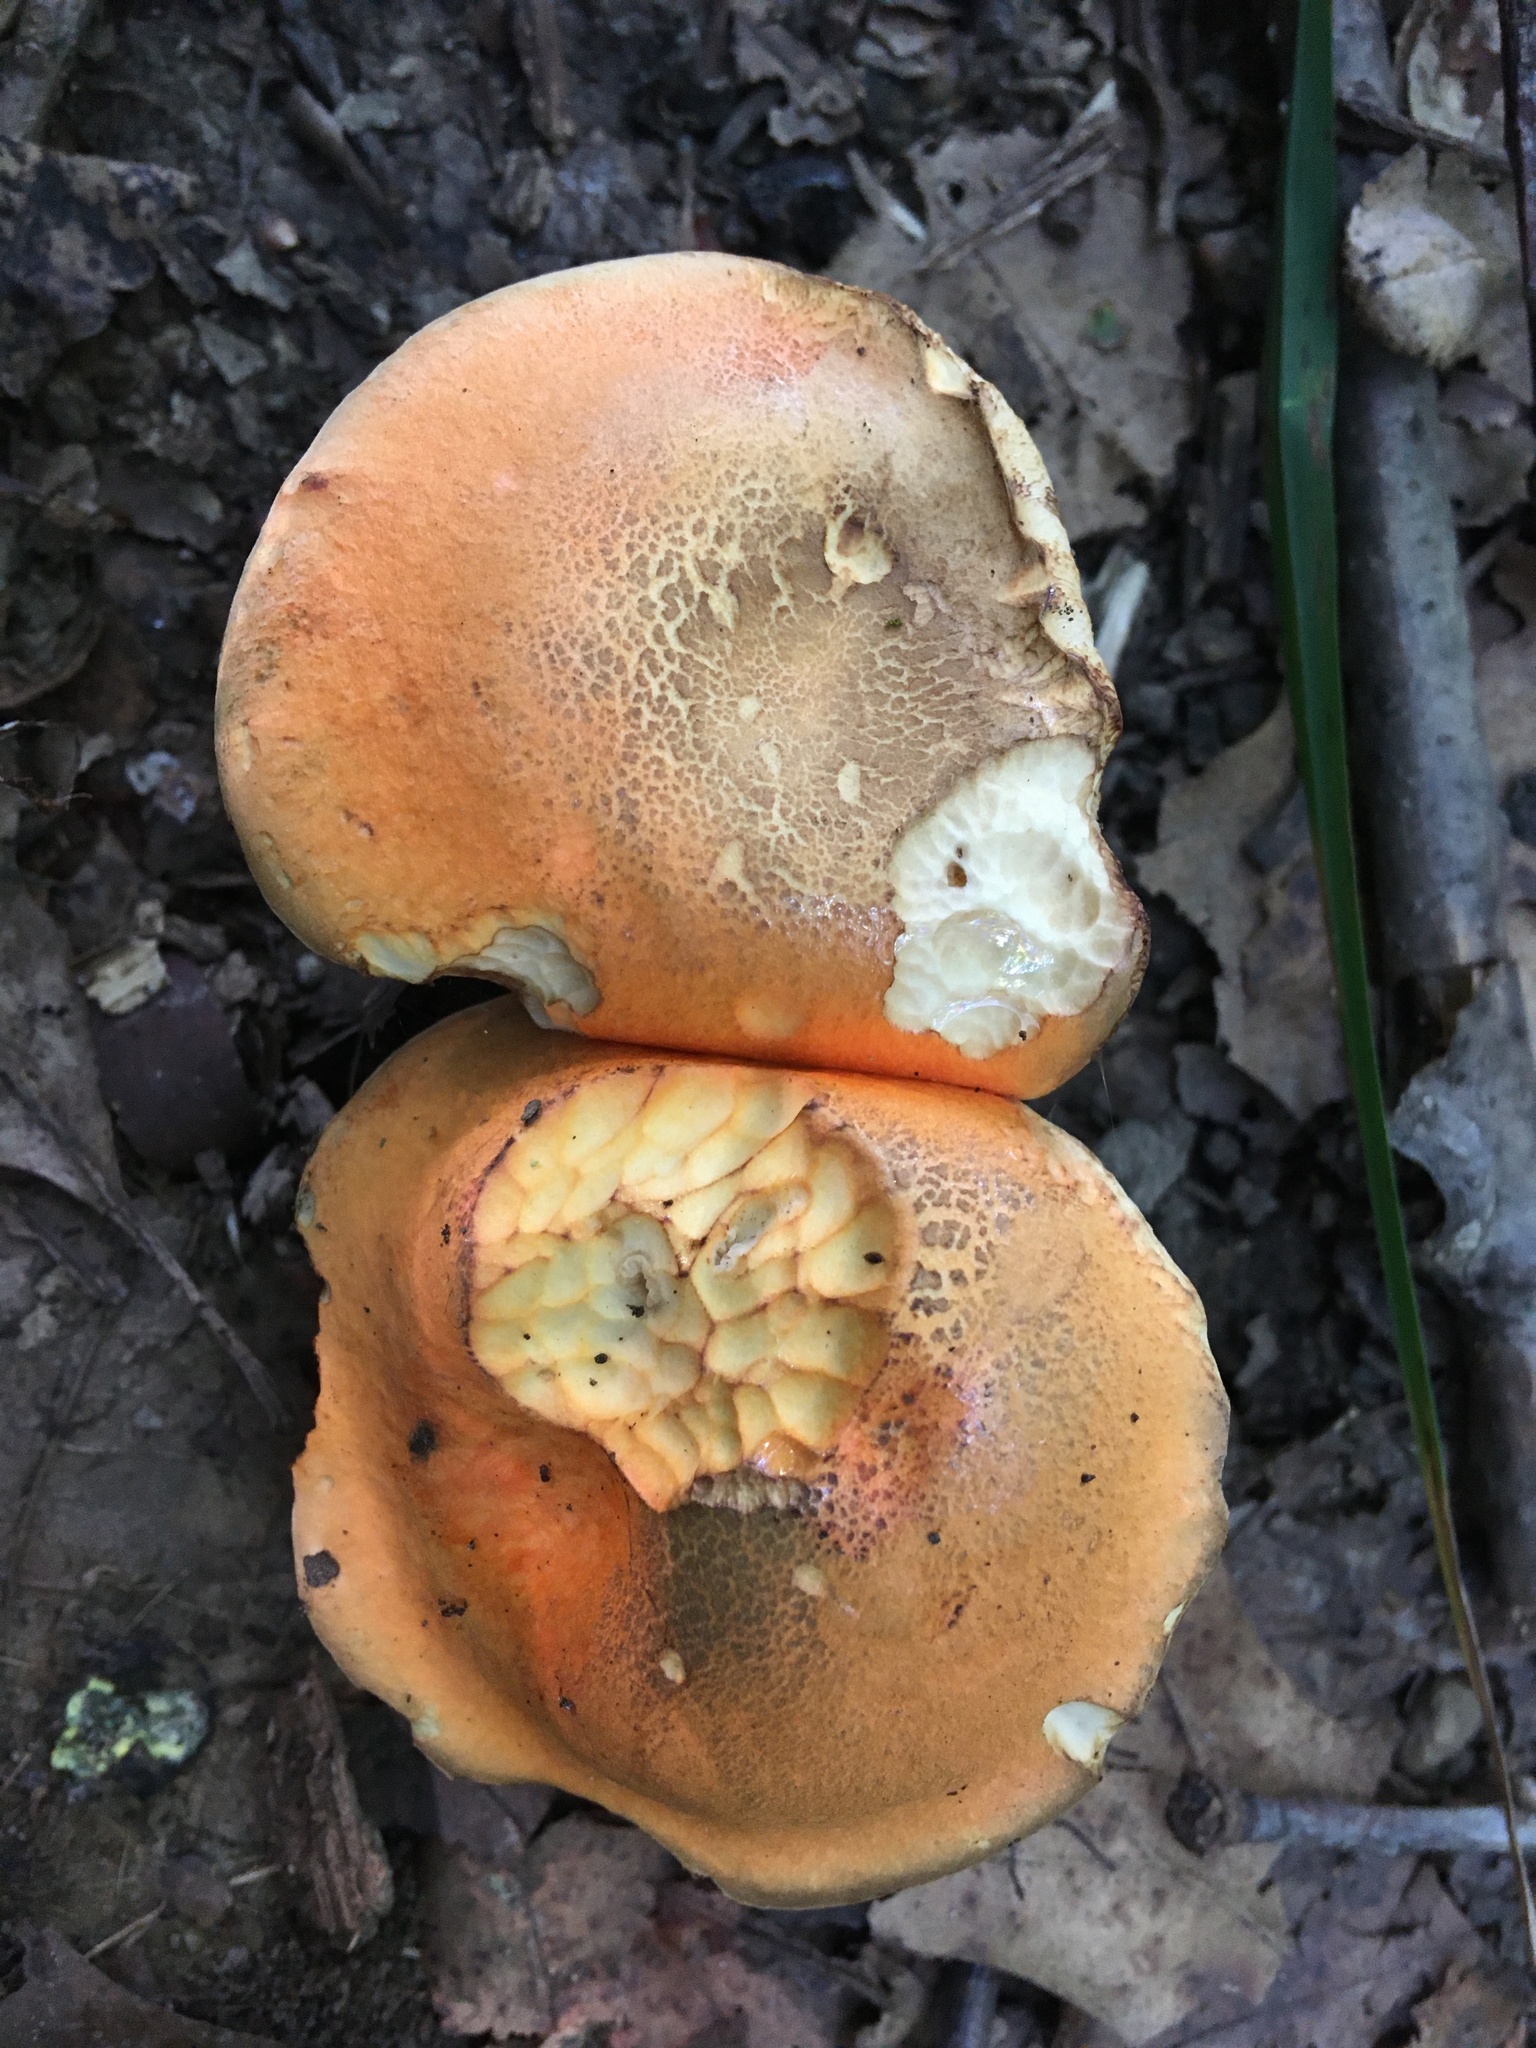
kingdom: Fungi
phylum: Basidiomycota
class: Agaricomycetes
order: Boletales
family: Boletaceae
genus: Tylopilus
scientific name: Tylopilus balloui
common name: Burnt-orange bolete
